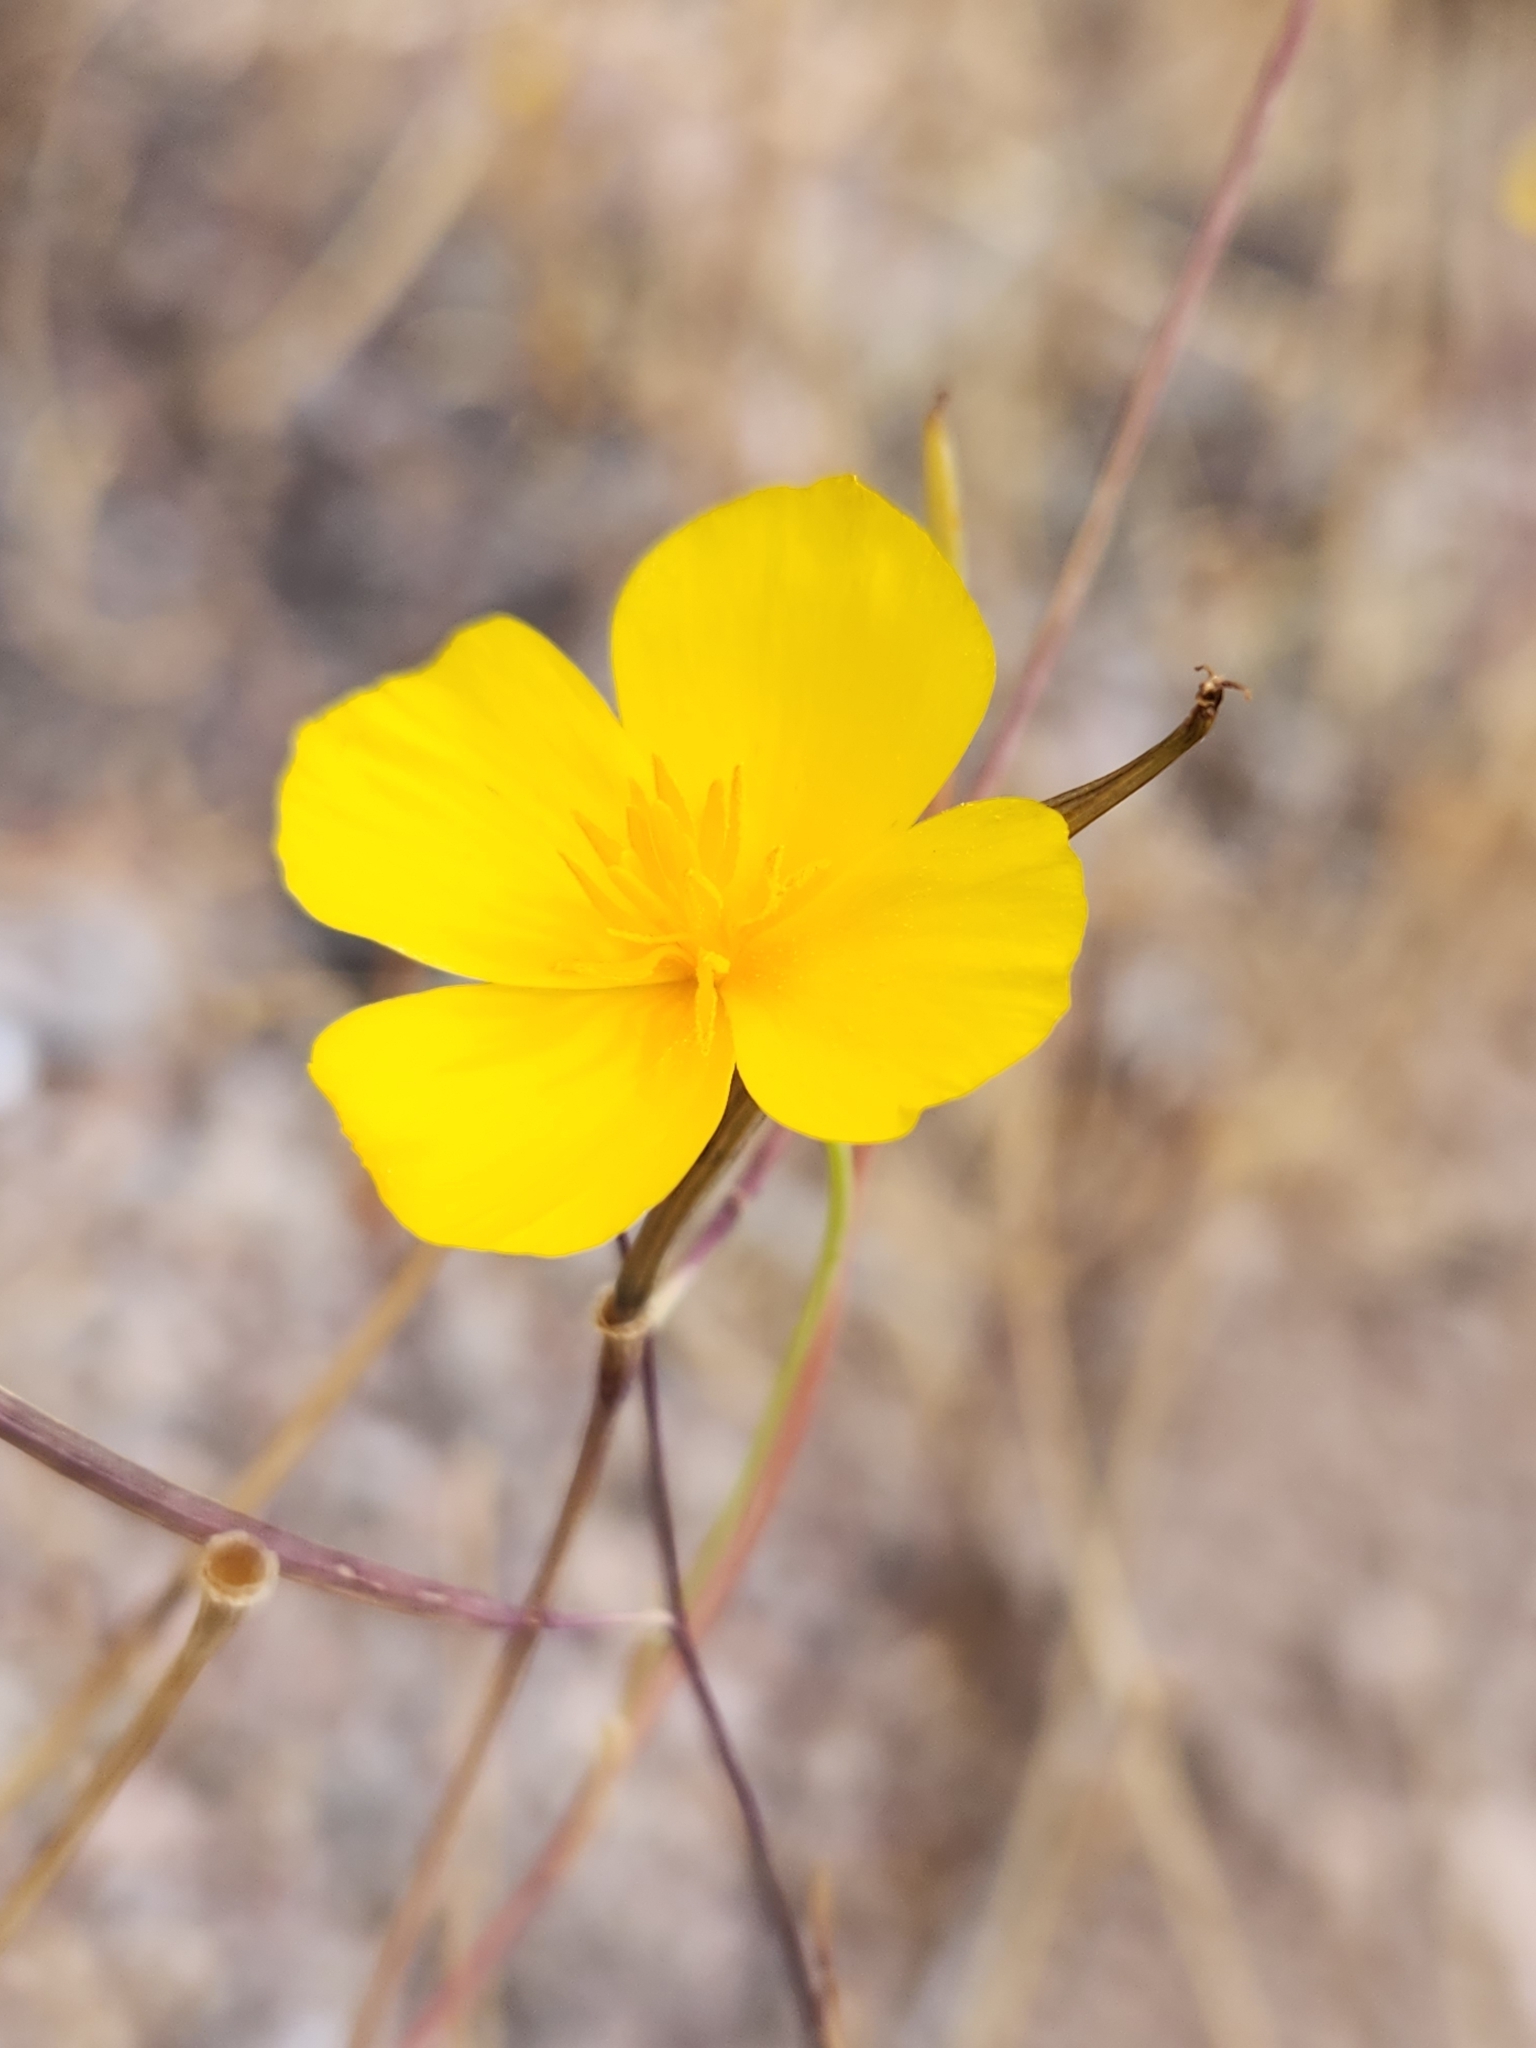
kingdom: Plantae
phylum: Tracheophyta
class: Magnoliopsida
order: Ranunculales
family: Papaveraceae
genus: Eschscholzia
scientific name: Eschscholzia caespitosa
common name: Tufted california-poppy
